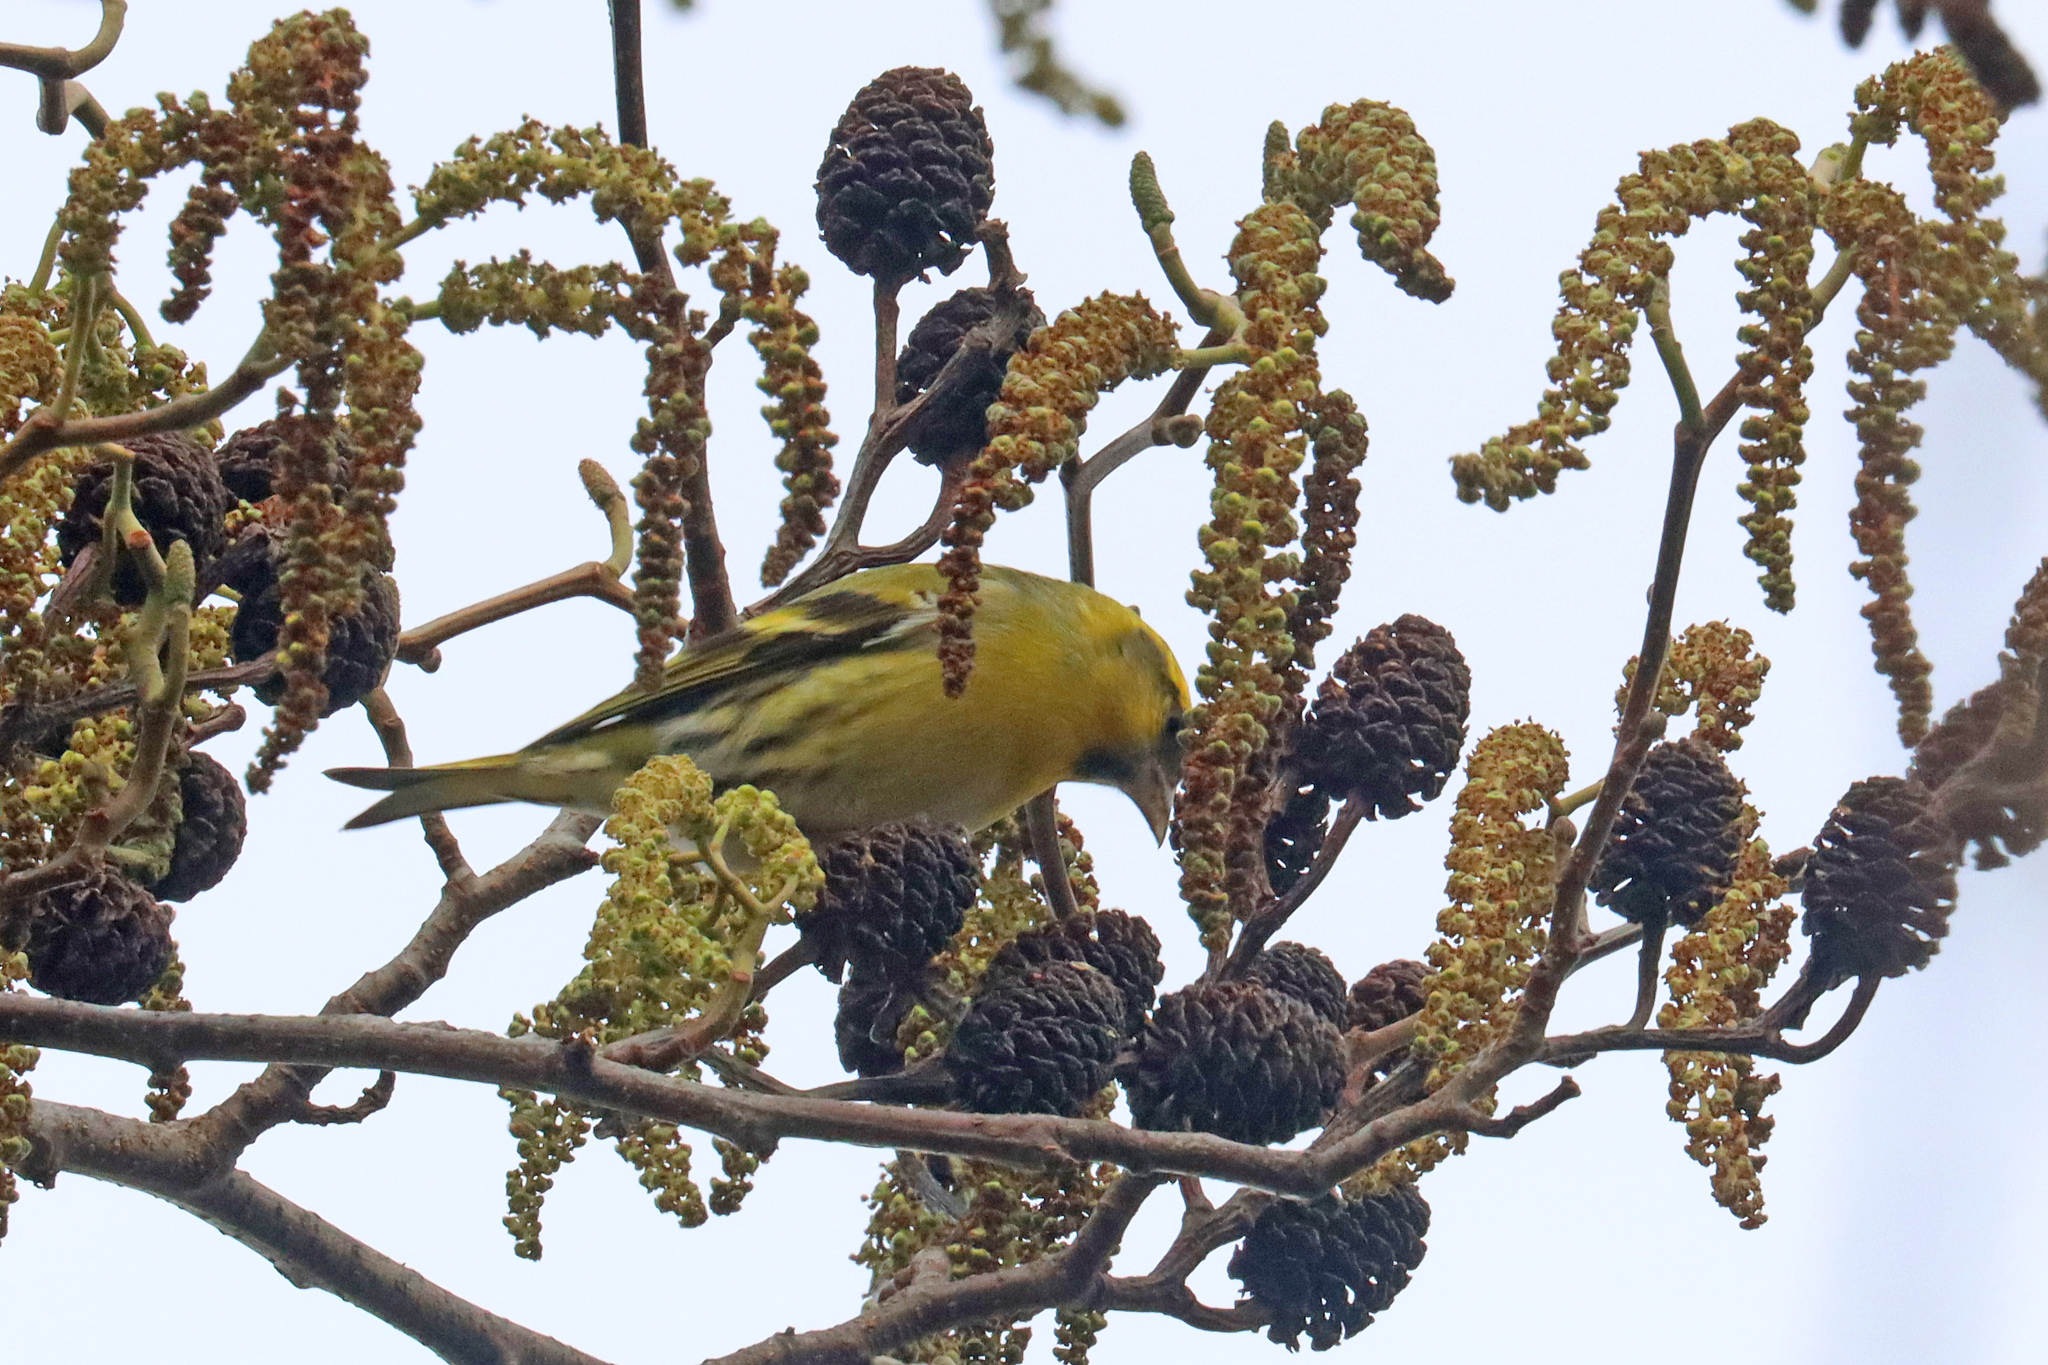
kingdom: Animalia
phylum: Chordata
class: Aves
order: Passeriformes
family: Fringillidae
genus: Spinus
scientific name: Spinus spinus
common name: Eurasian siskin
